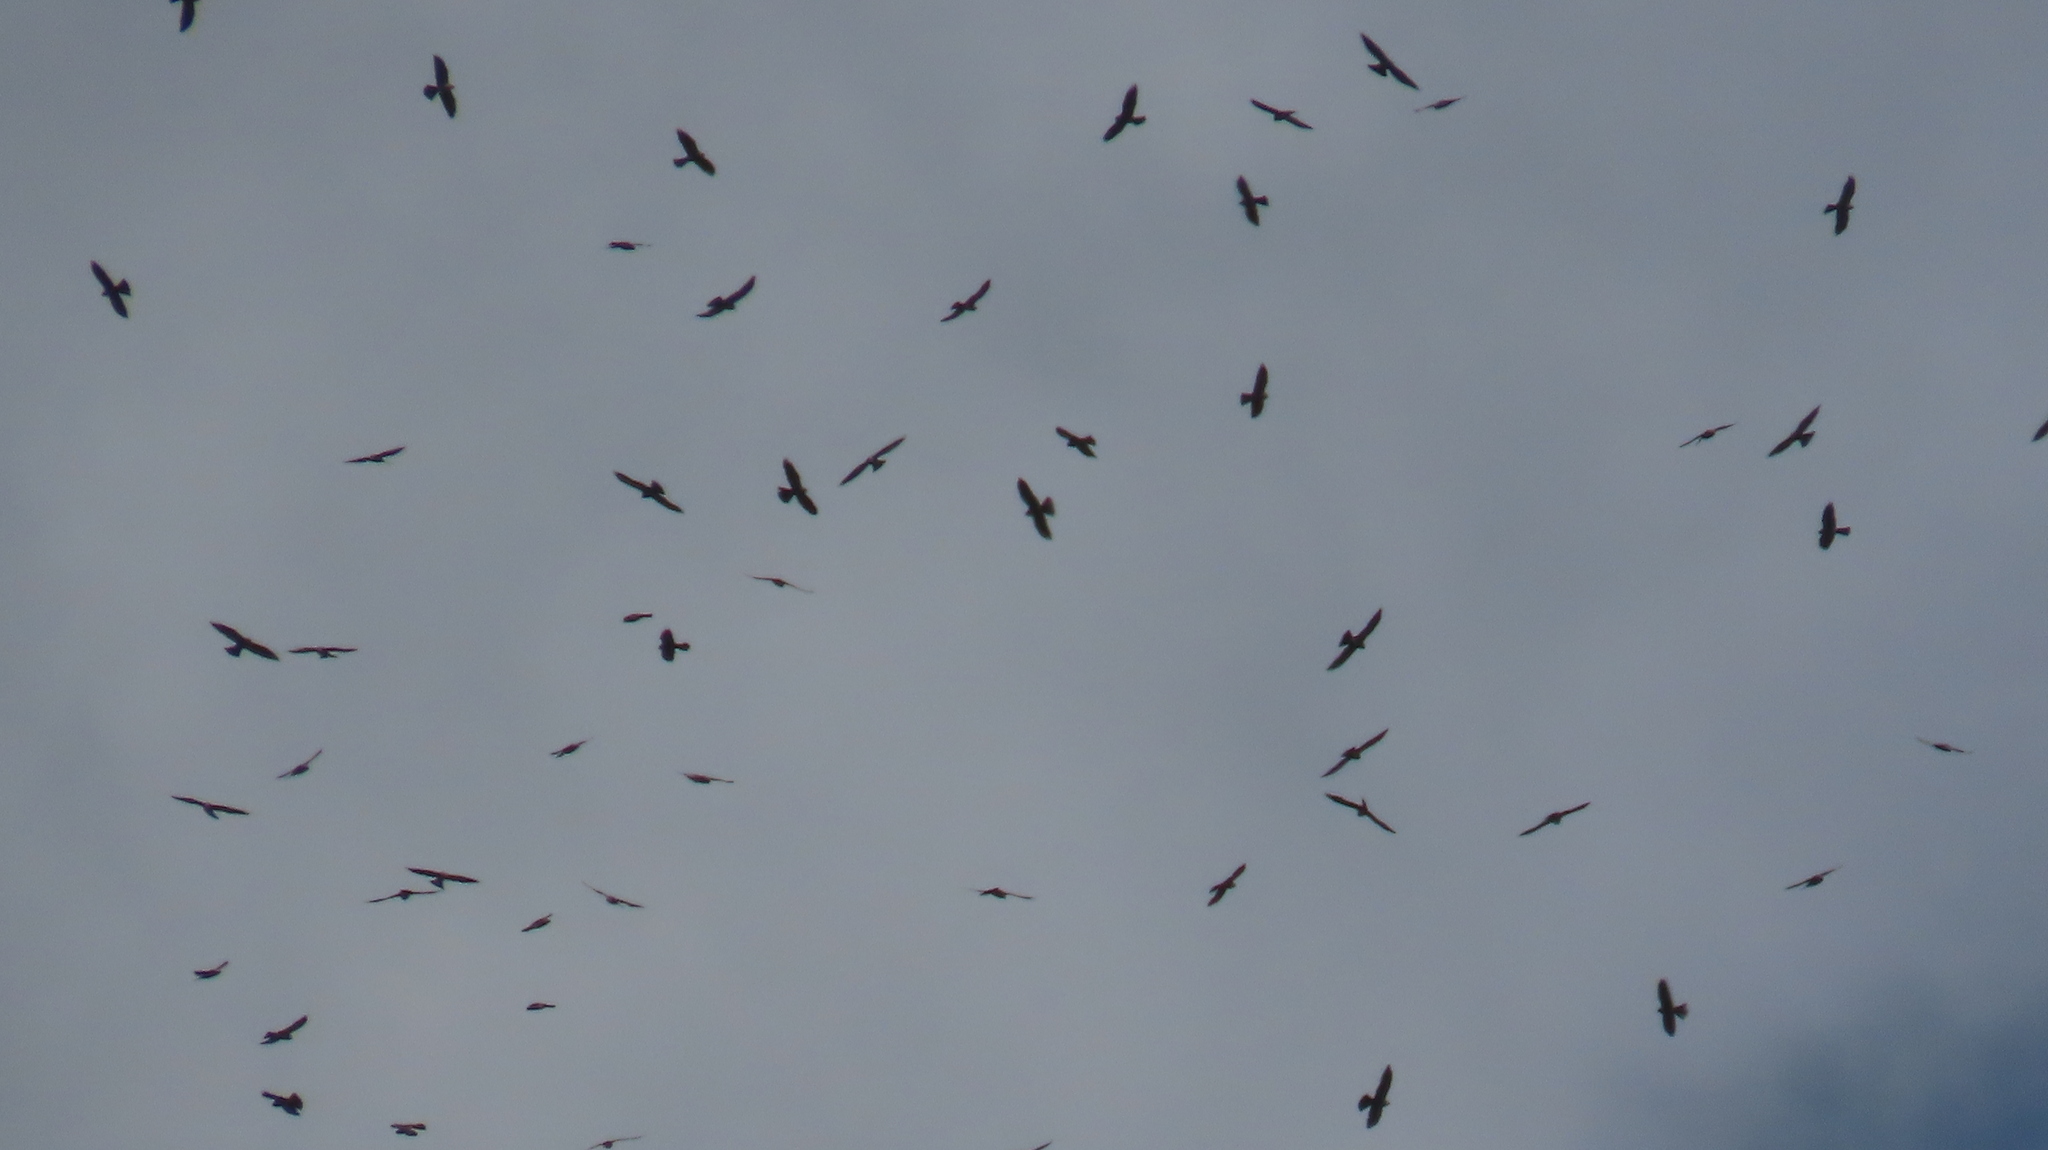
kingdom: Animalia
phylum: Chordata
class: Aves
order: Accipitriformes
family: Accipitridae
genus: Ictinia
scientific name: Ictinia mississippiensis
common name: Mississippi kite
